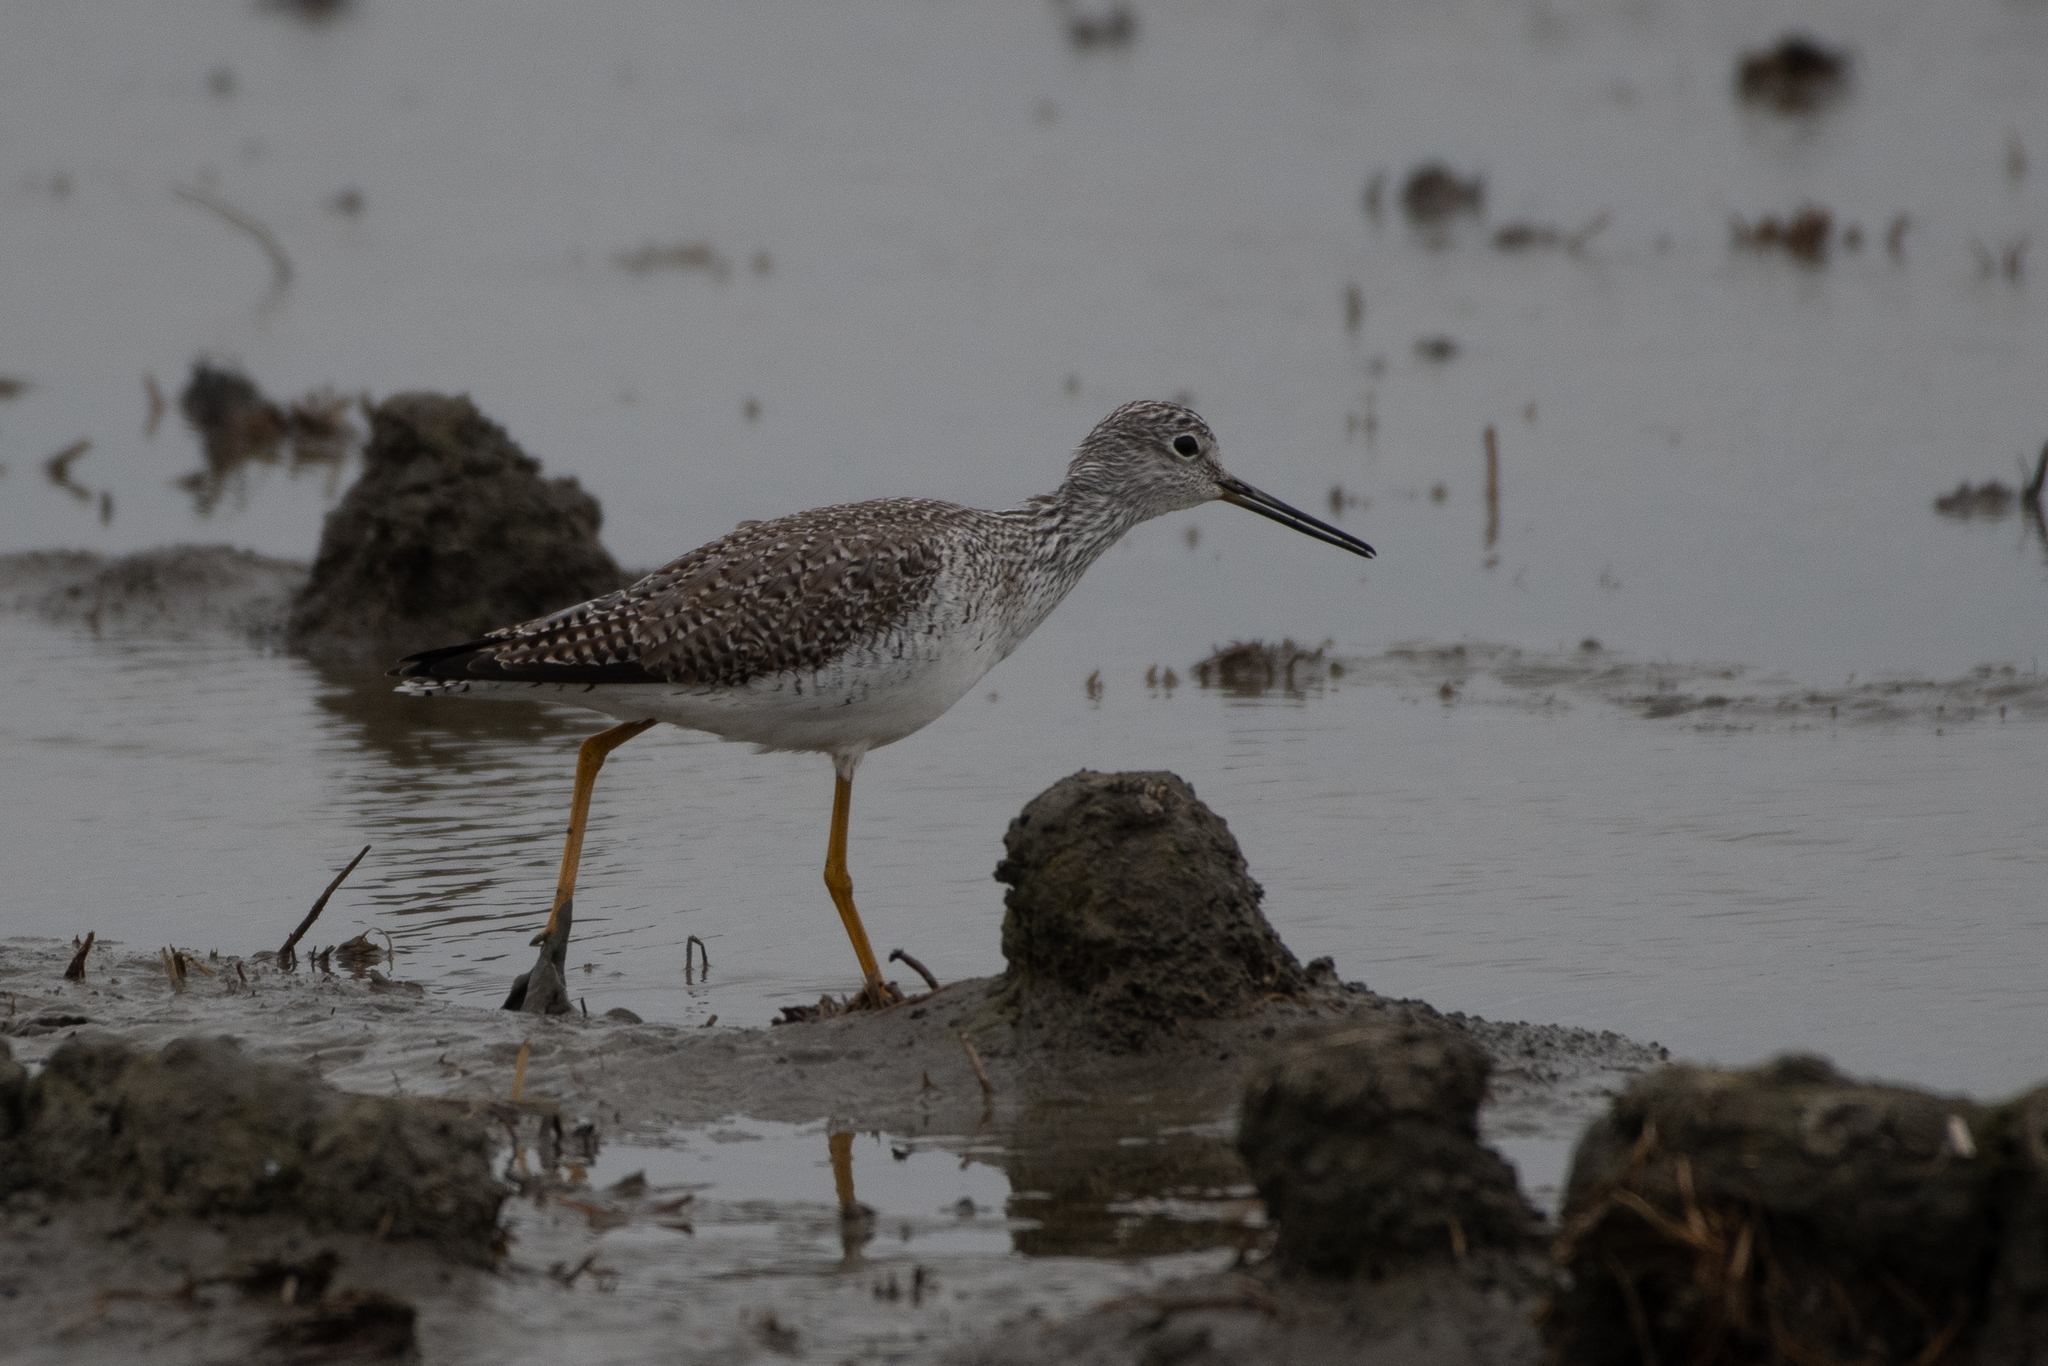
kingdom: Animalia
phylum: Chordata
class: Aves
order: Charadriiformes
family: Scolopacidae
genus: Tringa
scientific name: Tringa melanoleuca
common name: Greater yellowlegs
